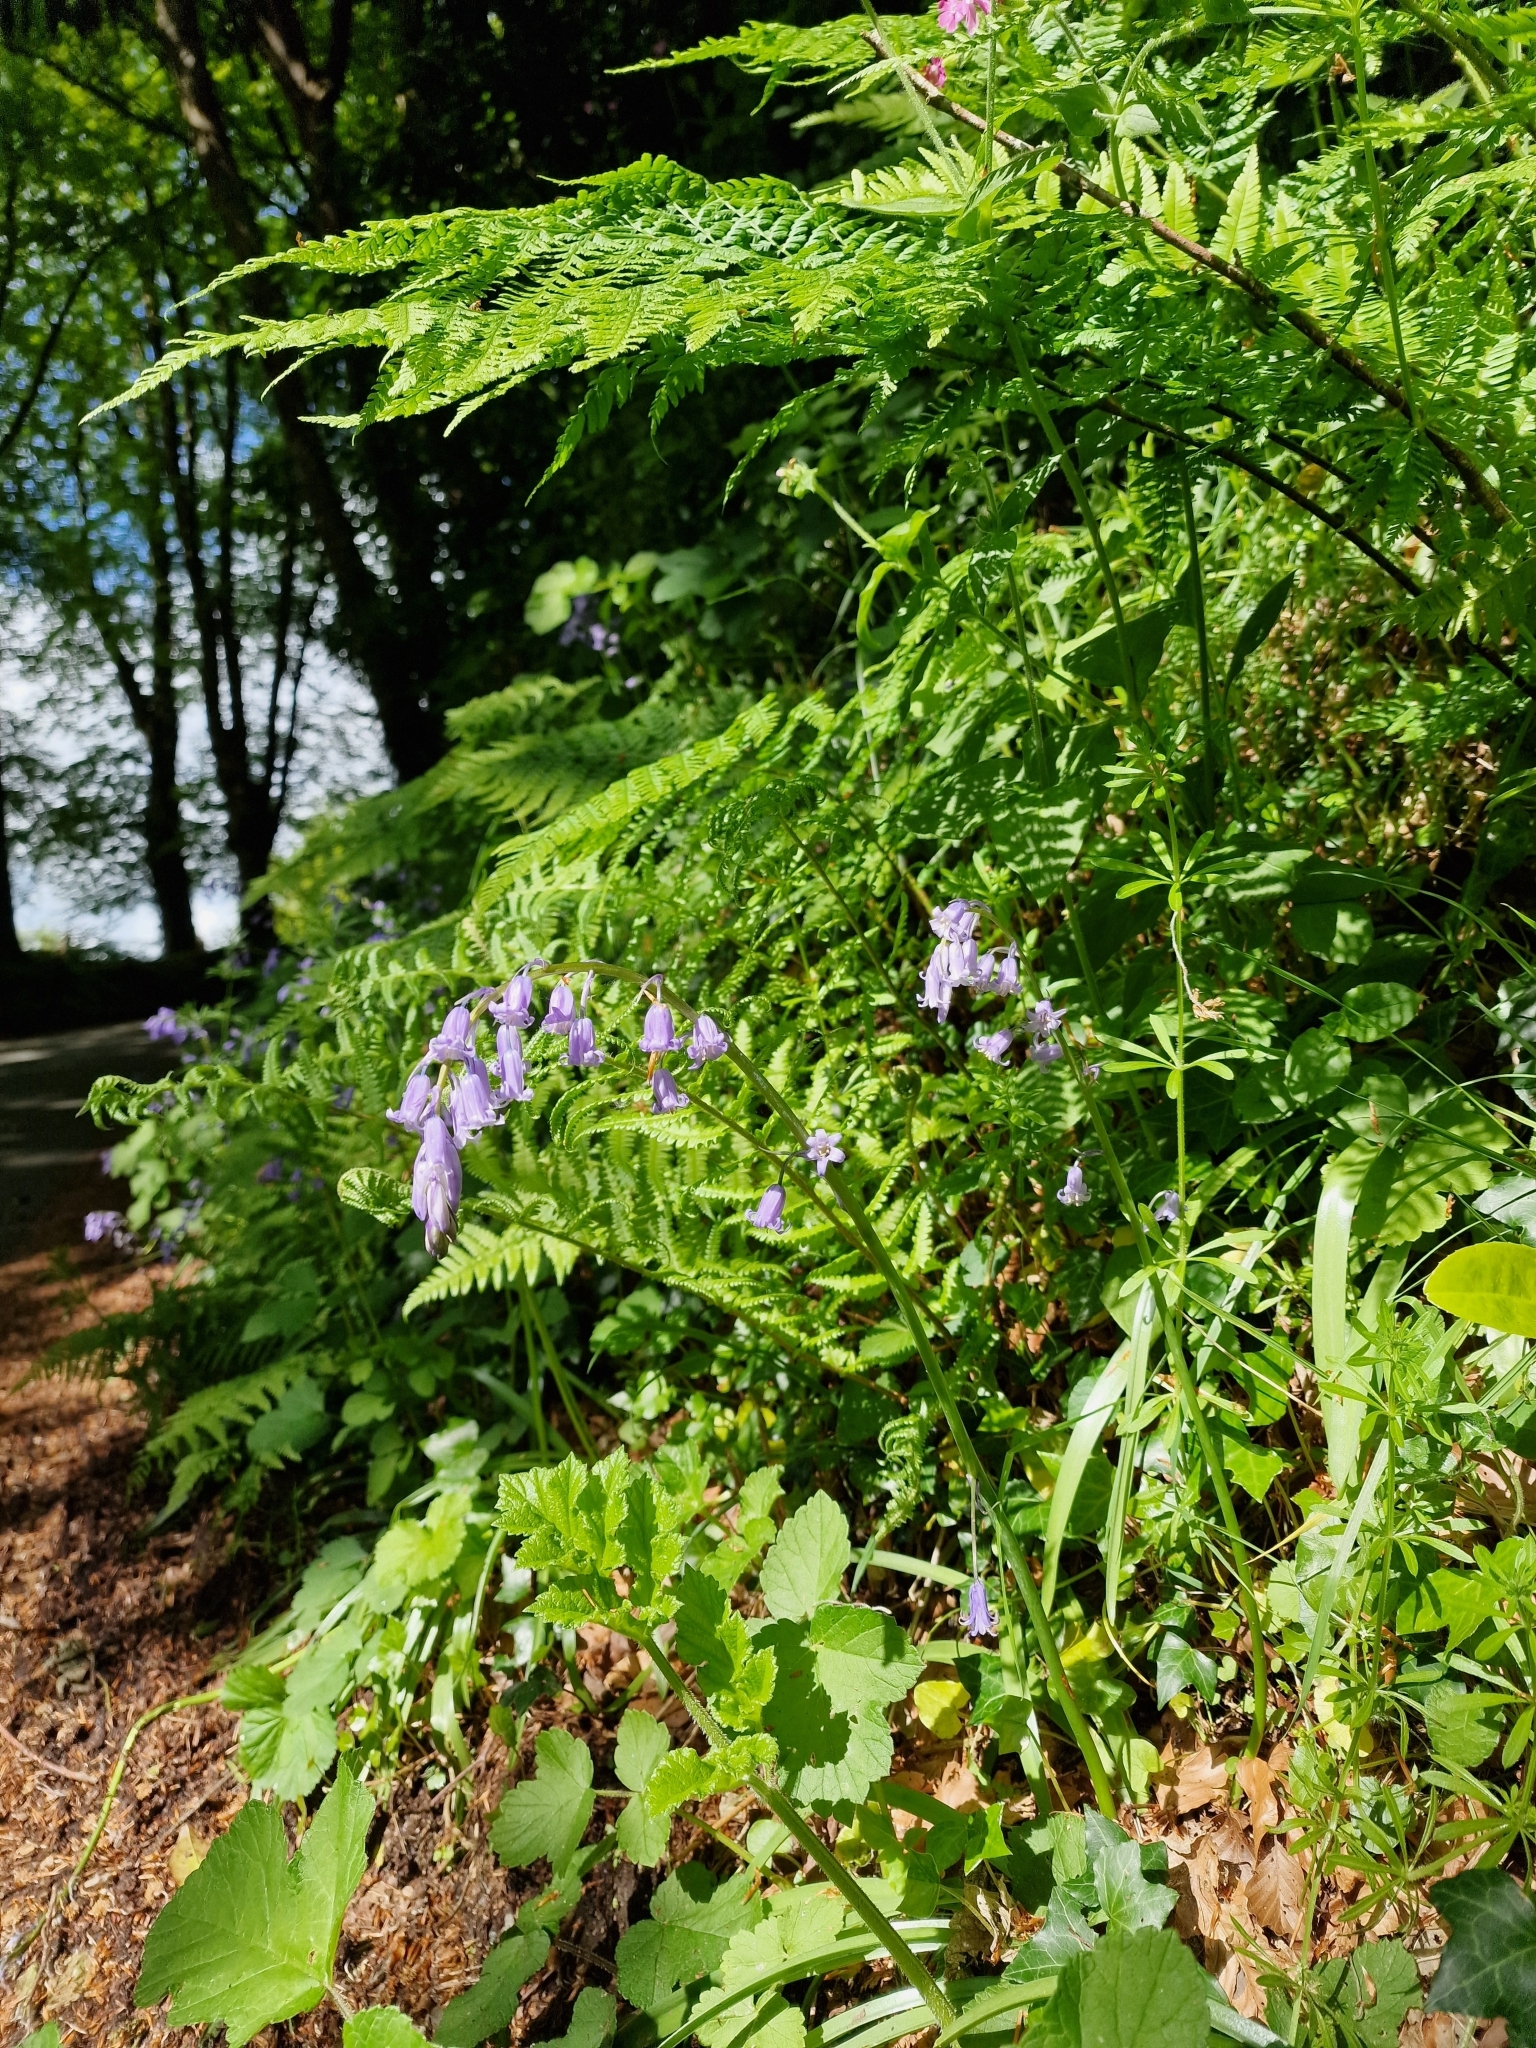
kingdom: Plantae
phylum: Tracheophyta
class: Liliopsida
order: Asparagales
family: Asparagaceae
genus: Hyacinthoides
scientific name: Hyacinthoides non-scripta
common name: Bluebell
